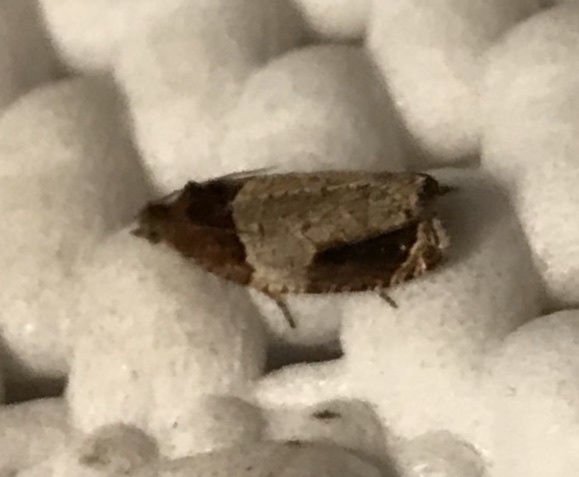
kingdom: Animalia
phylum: Arthropoda
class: Insecta
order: Lepidoptera
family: Tortricidae
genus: Olethreutes
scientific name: Olethreutes ferriferana
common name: Hydrangea leaftier moth
